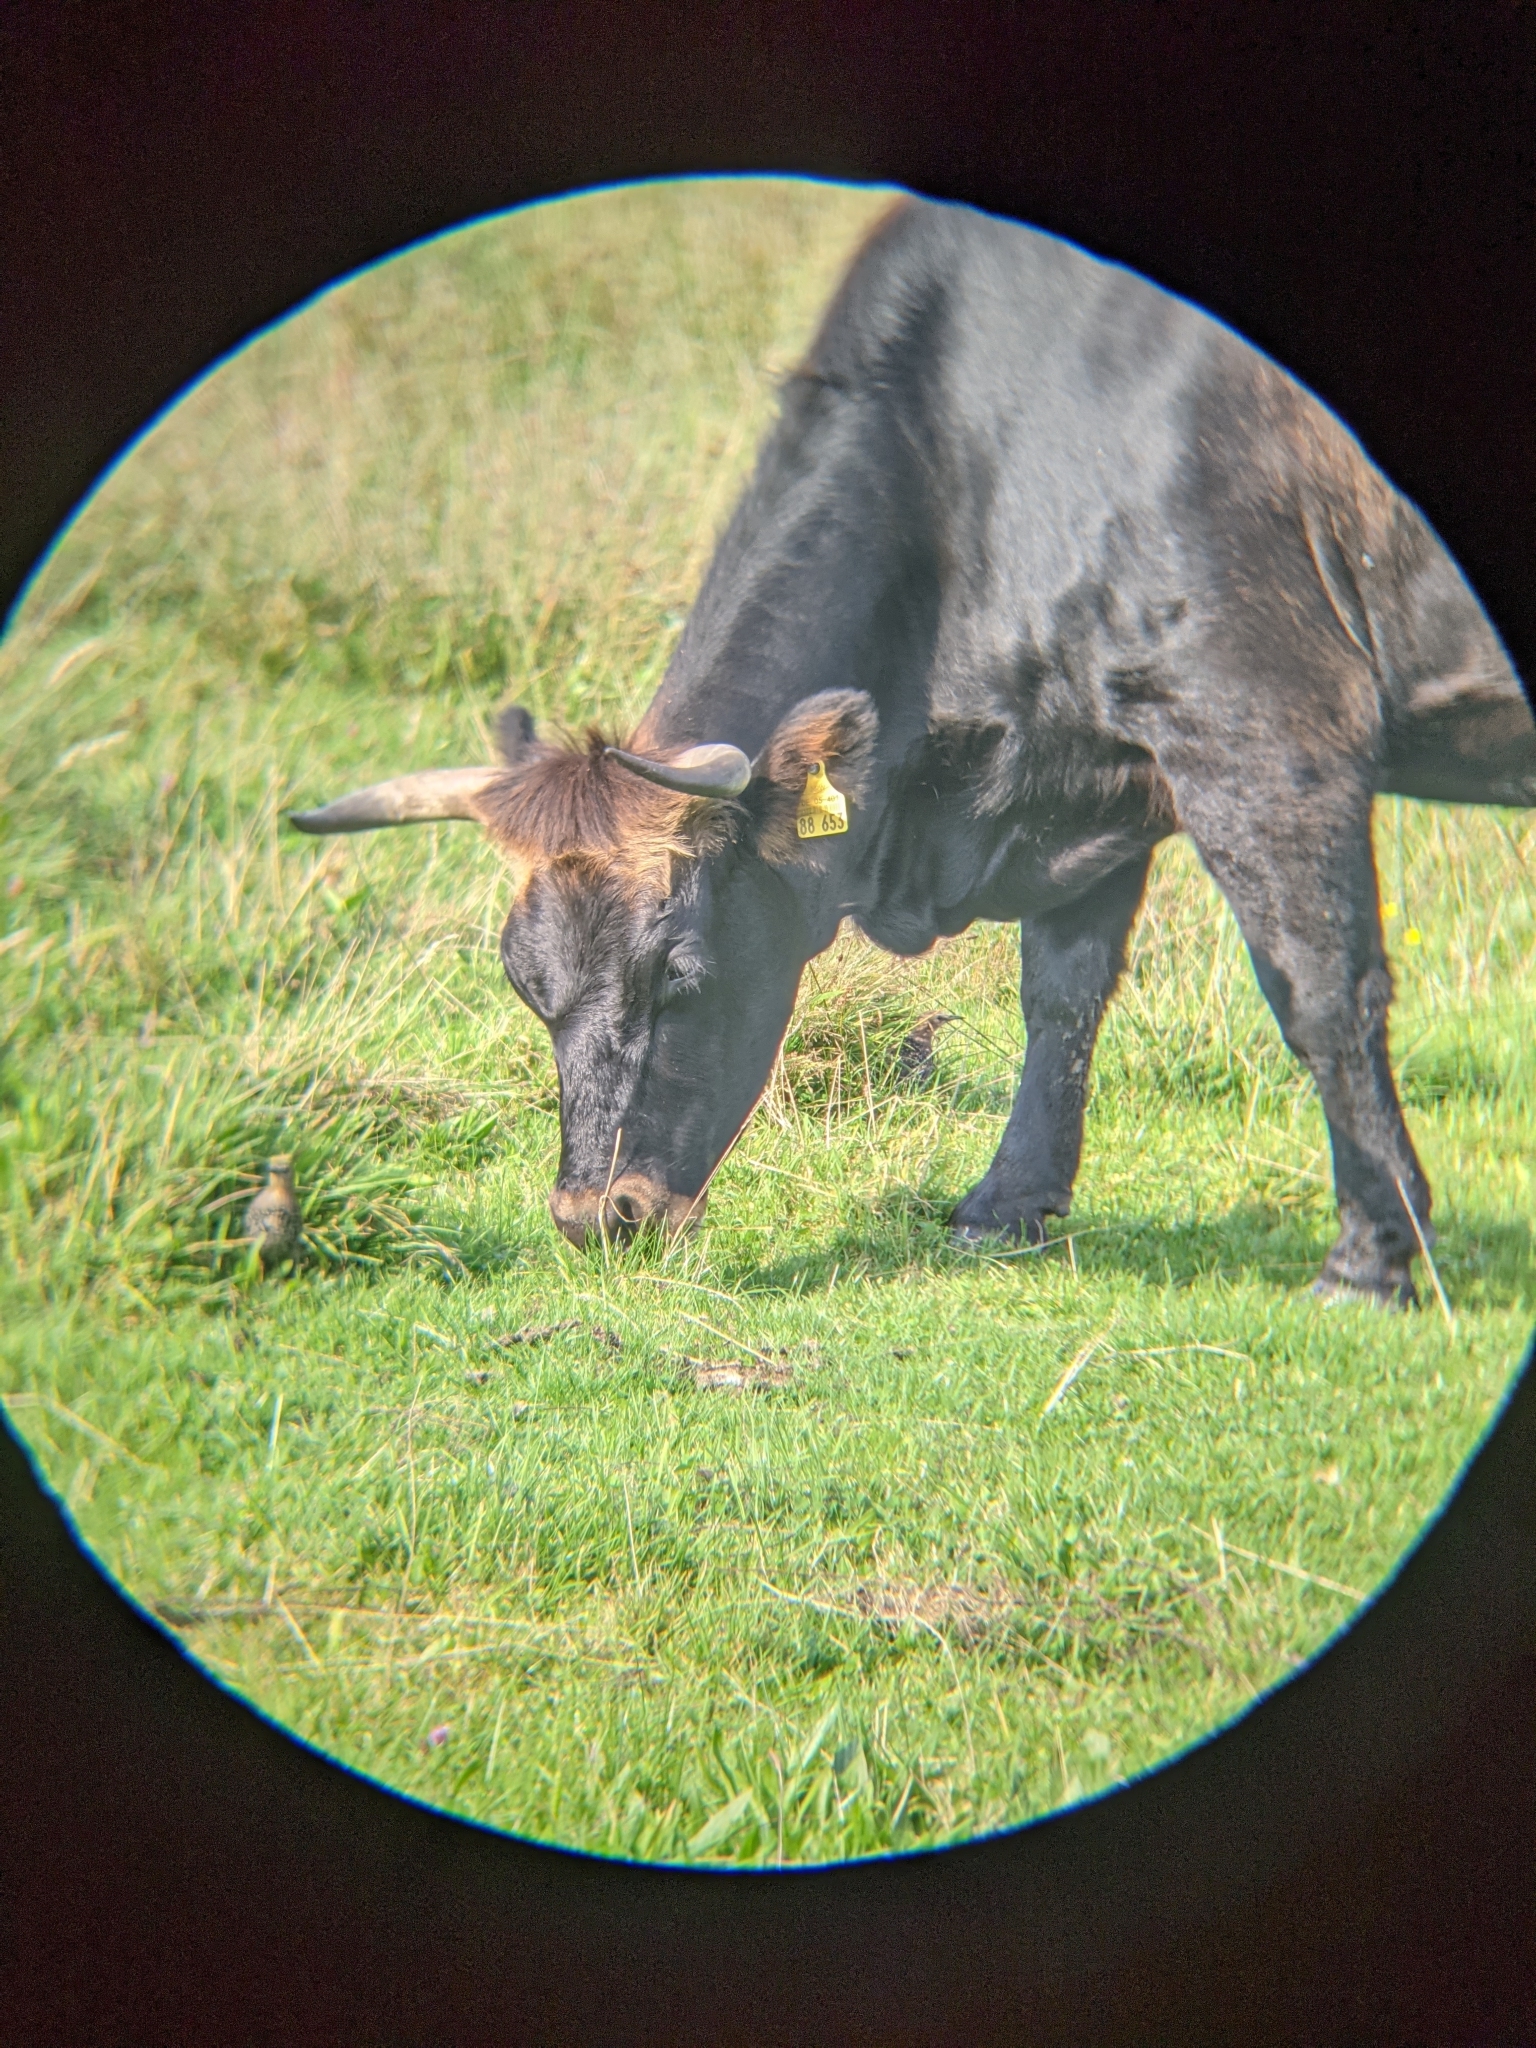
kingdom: Animalia
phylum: Chordata
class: Aves
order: Passeriformes
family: Sturnidae
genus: Sturnus
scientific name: Sturnus vulgaris
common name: Common starling
